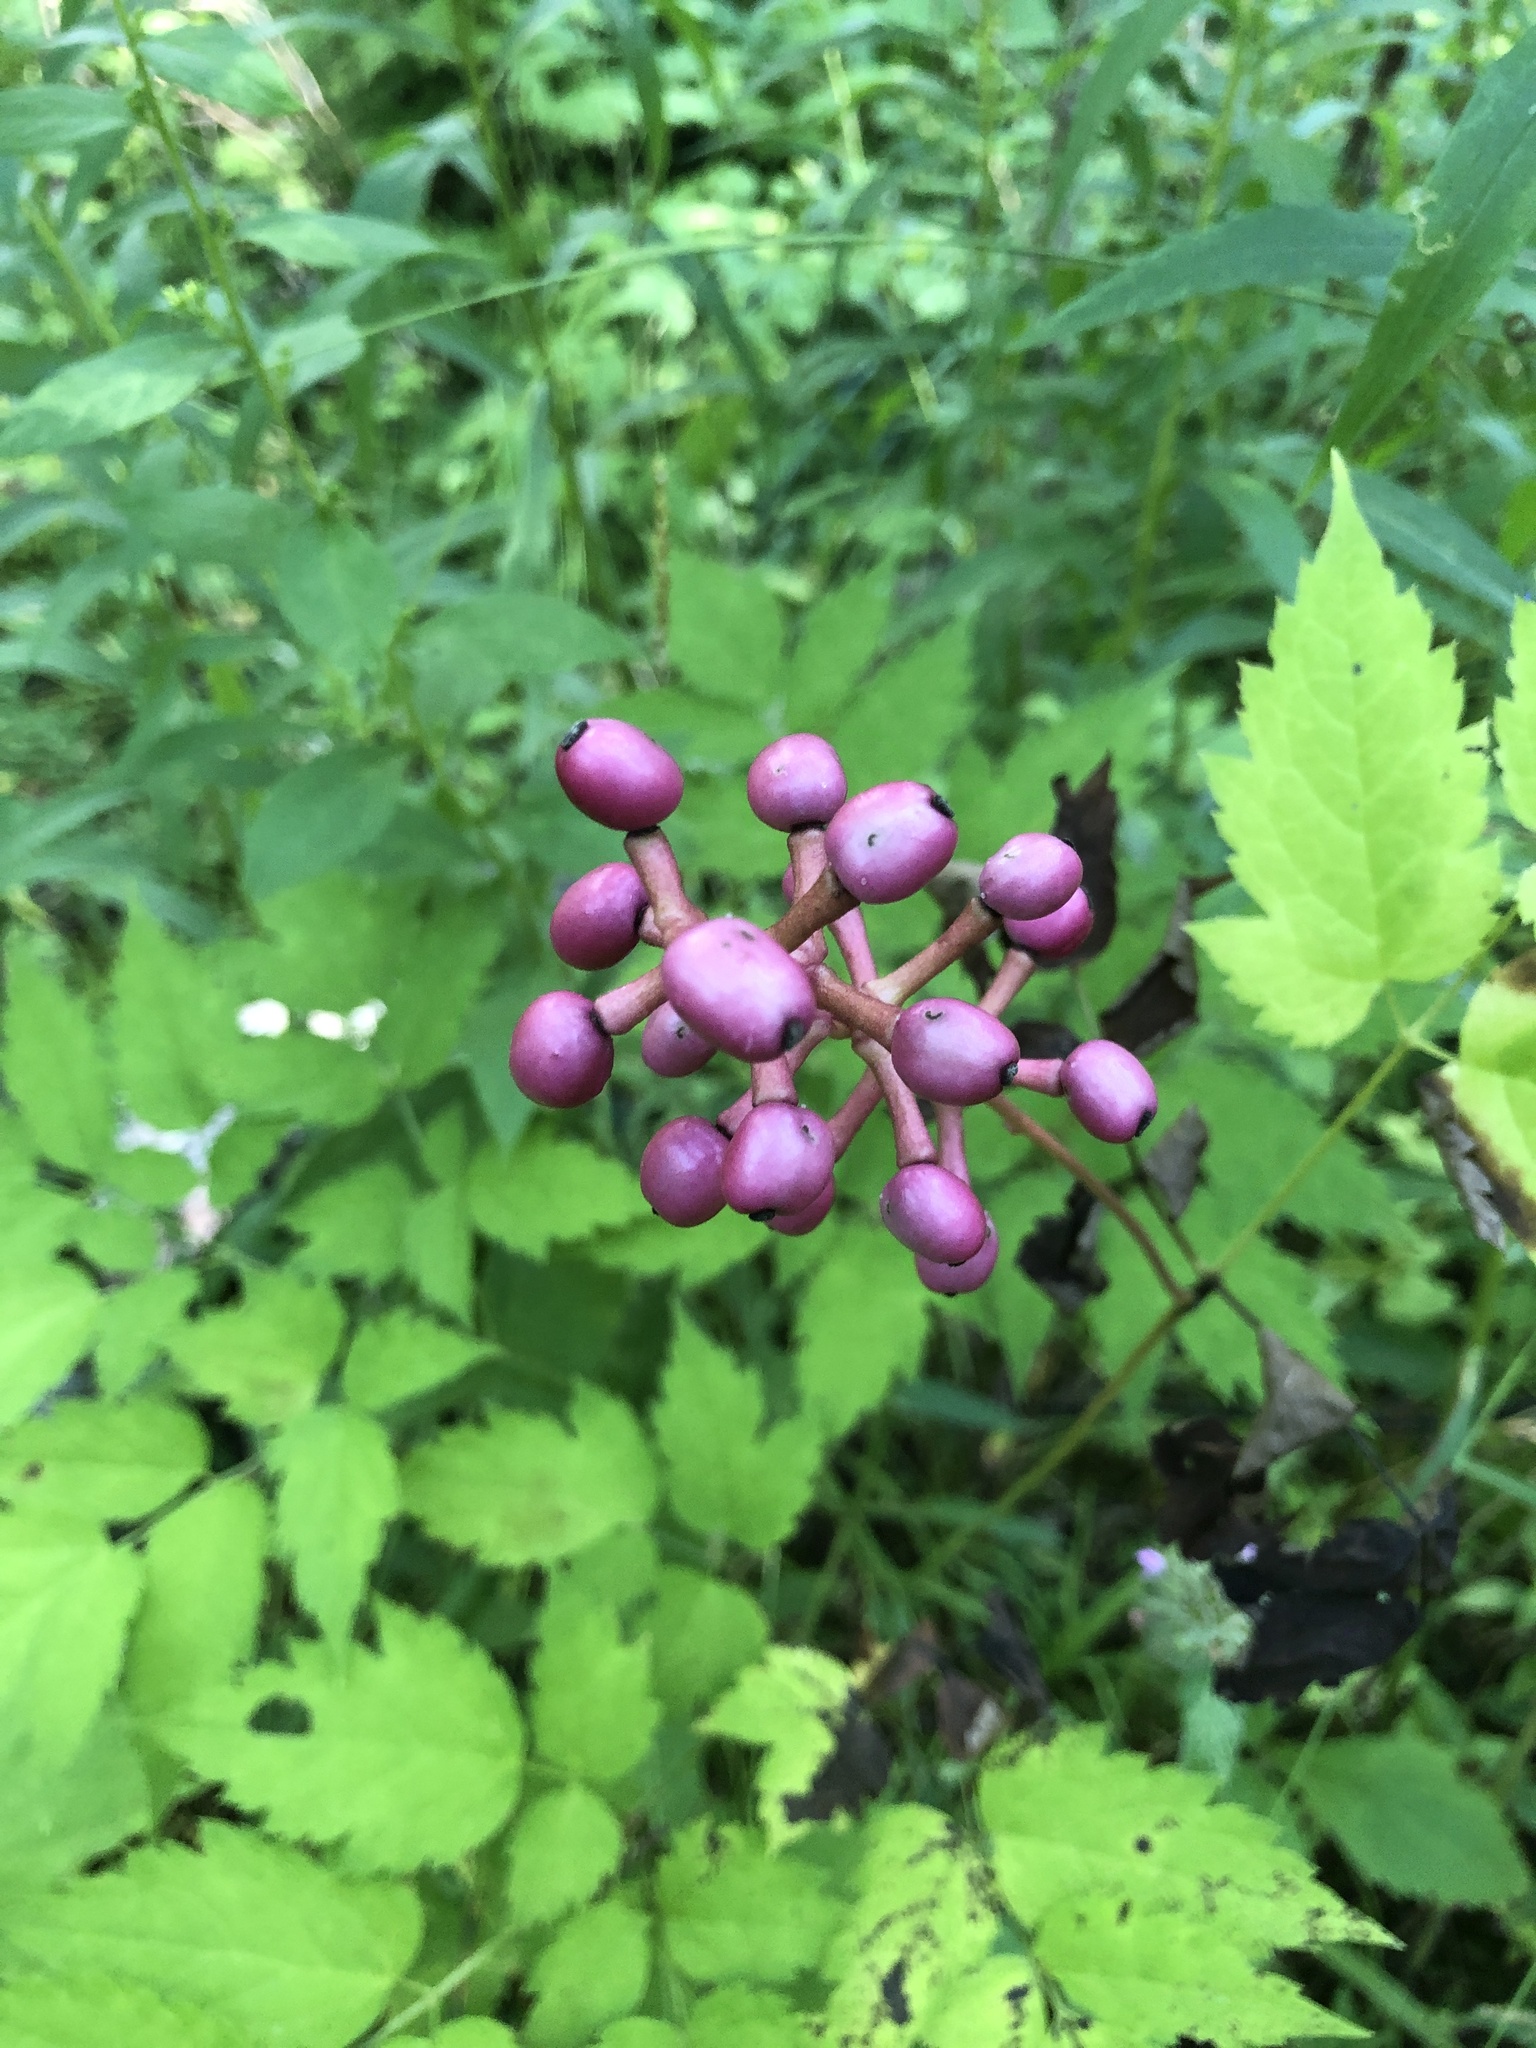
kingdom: Plantae
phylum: Tracheophyta
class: Magnoliopsida
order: Ranunculales
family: Ranunculaceae
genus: Actaea
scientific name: Actaea pachypoda
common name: Doll's-eyes
